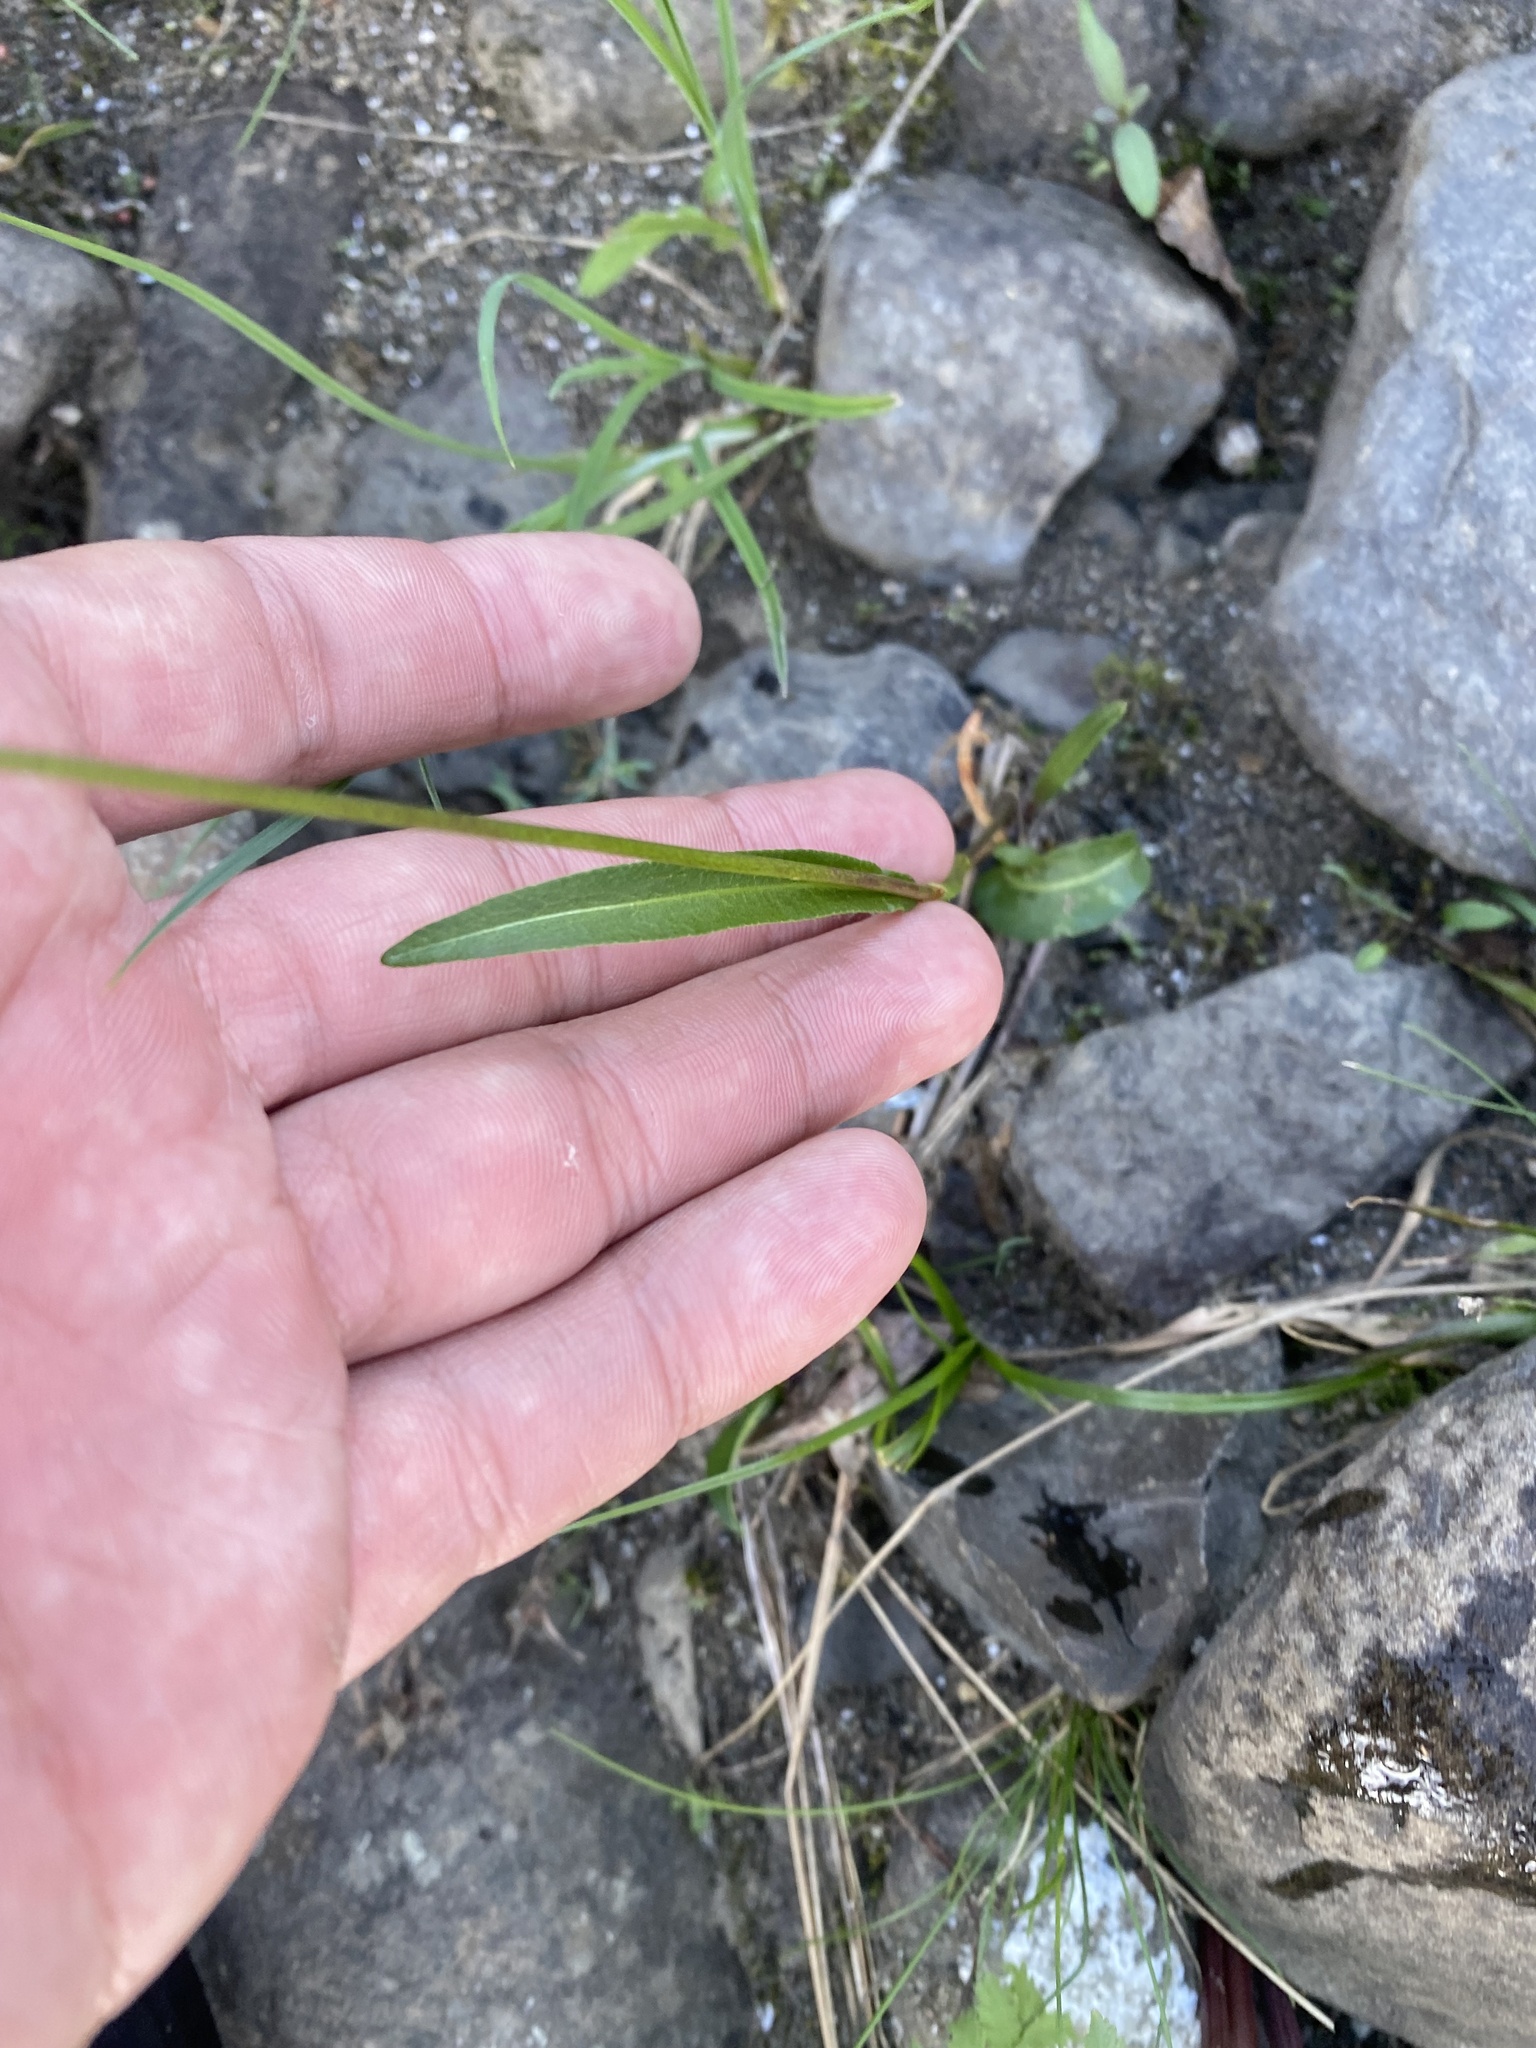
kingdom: Plantae
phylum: Tracheophyta
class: Magnoliopsida
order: Caryophyllales
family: Polygonaceae
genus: Bistorta
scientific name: Bistorta vivipara
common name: Alpine bistort
